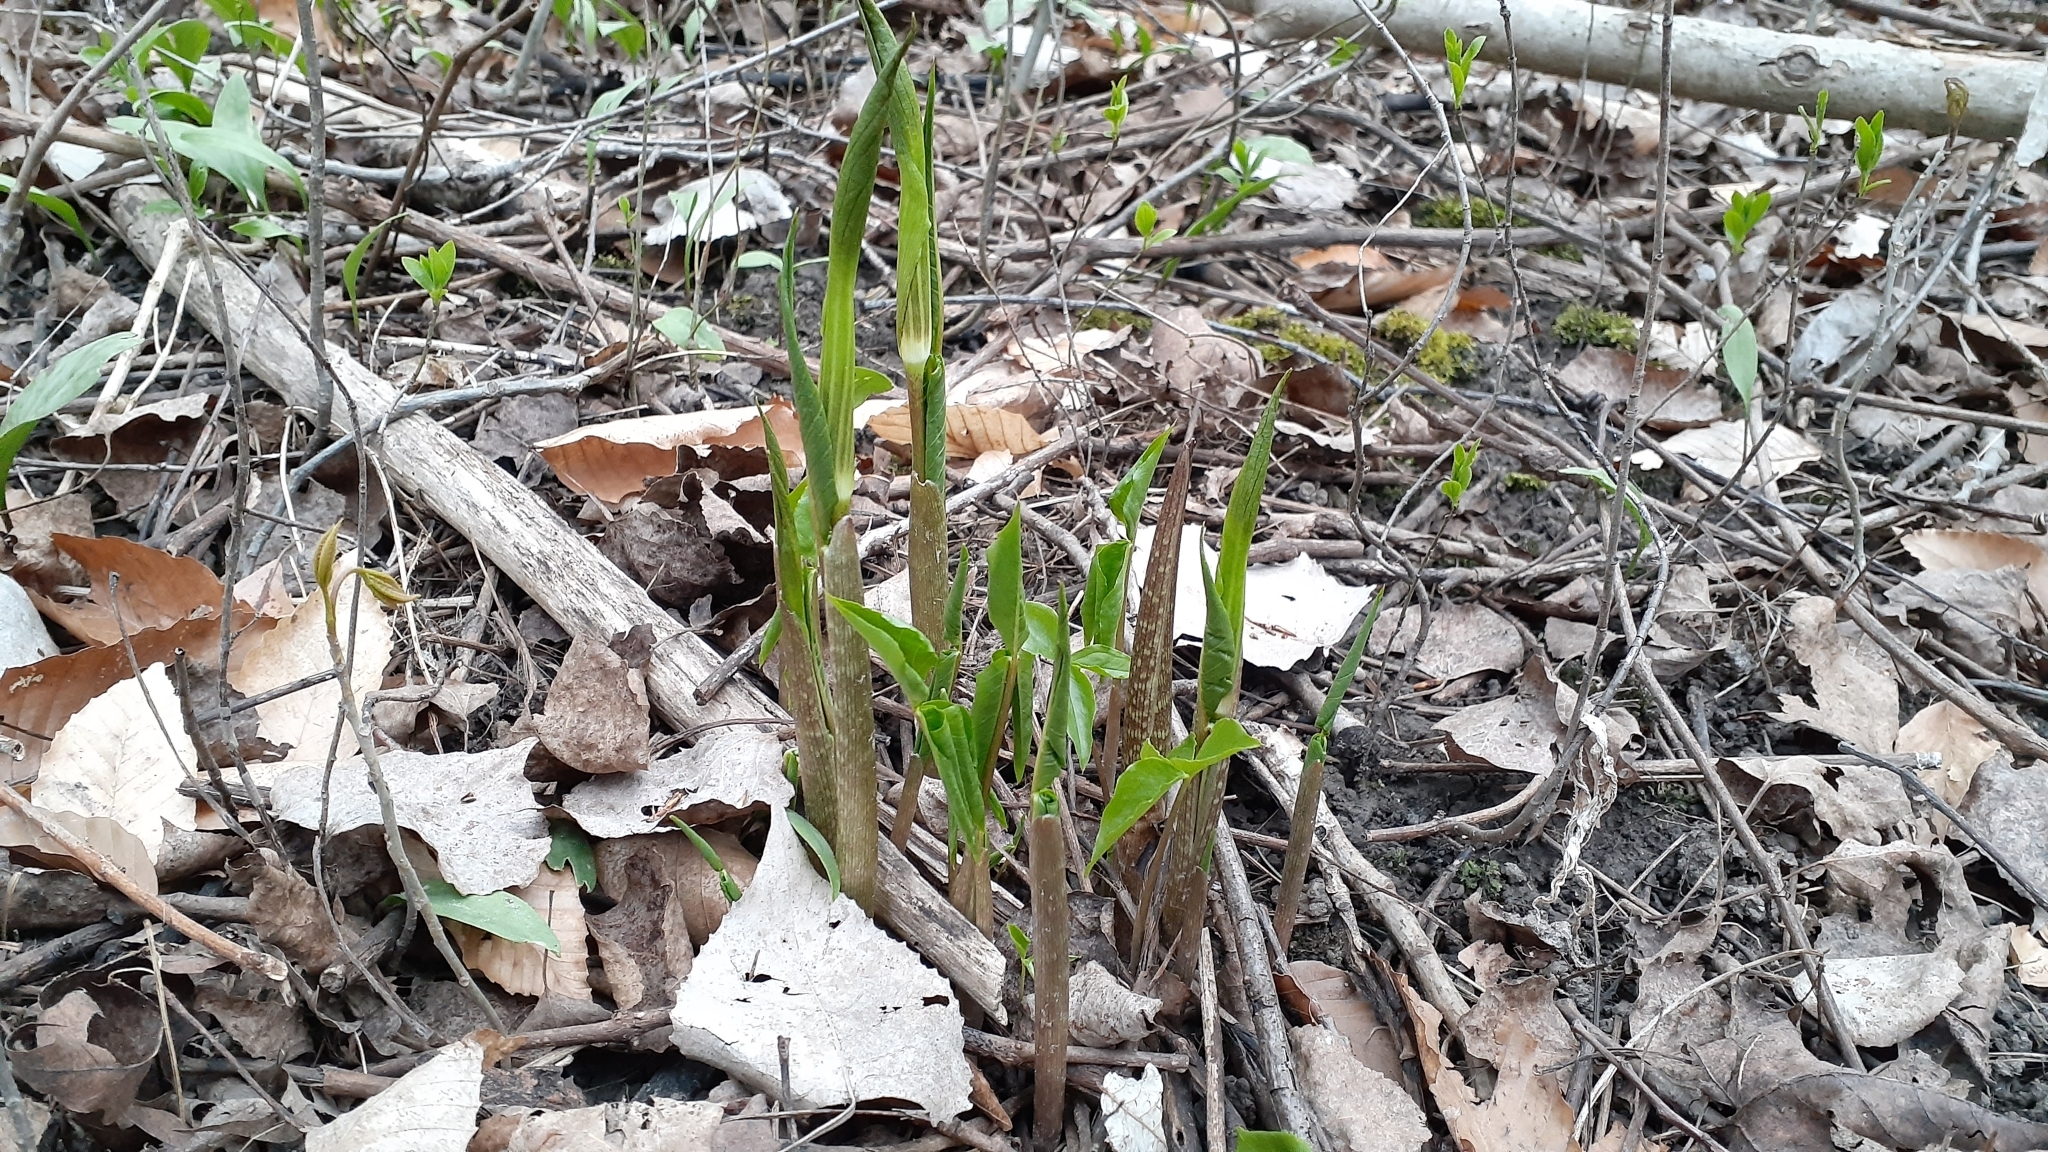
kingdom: Plantae
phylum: Tracheophyta
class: Liliopsida
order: Alismatales
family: Araceae
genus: Arisaema
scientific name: Arisaema triphyllum
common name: Jack-in-the-pulpit
